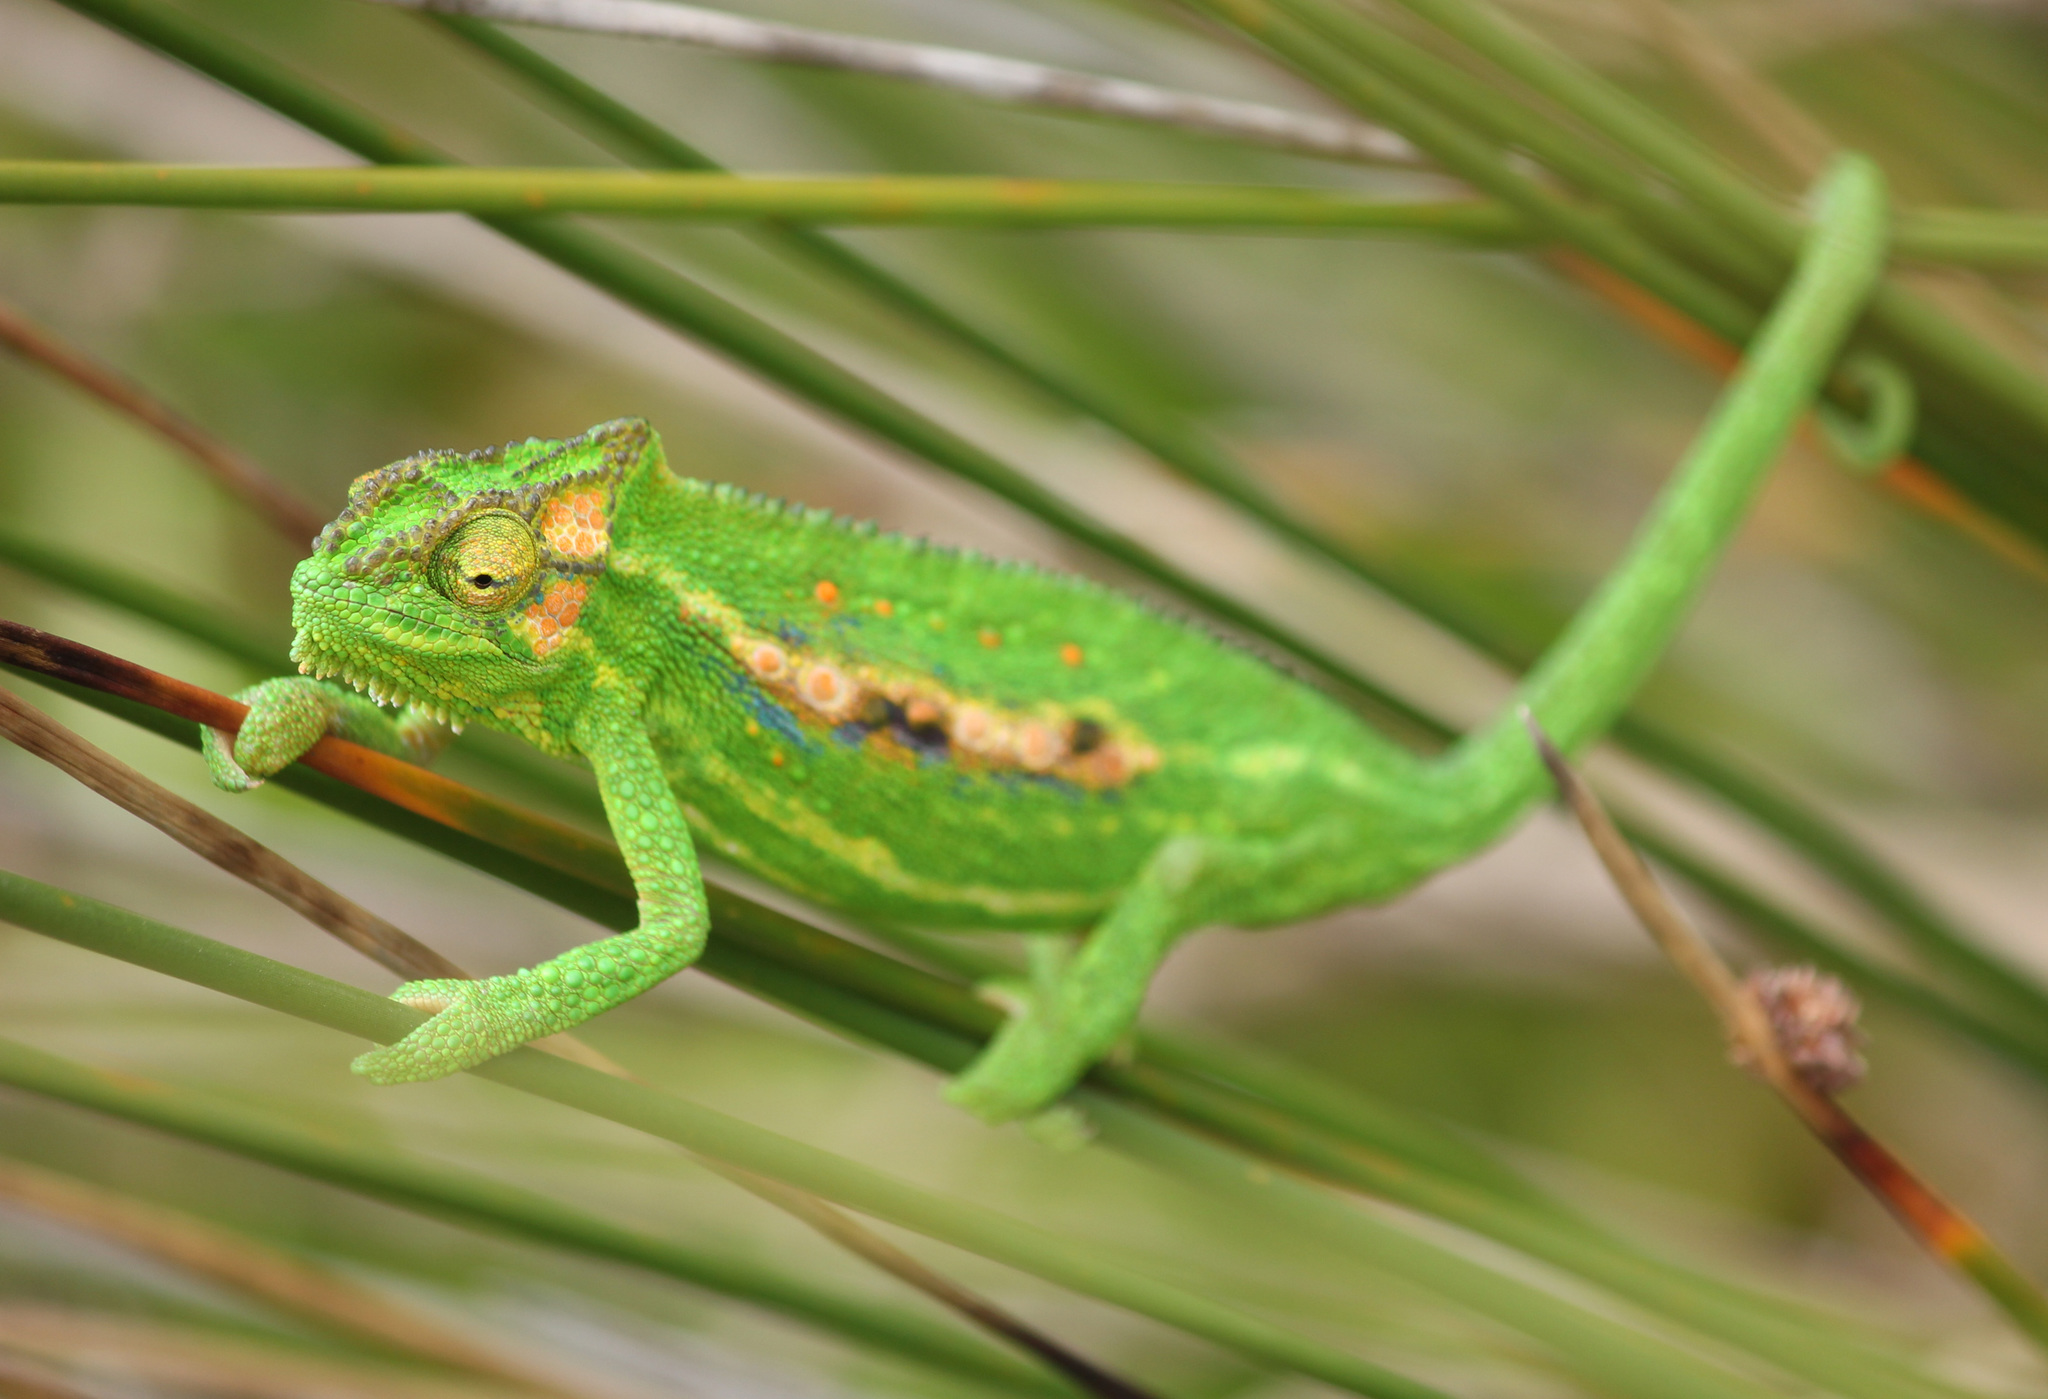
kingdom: Animalia
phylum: Chordata
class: Squamata
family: Chamaeleonidae
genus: Bradypodion
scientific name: Bradypodion pumilum
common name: Cape dwarf chameleon
